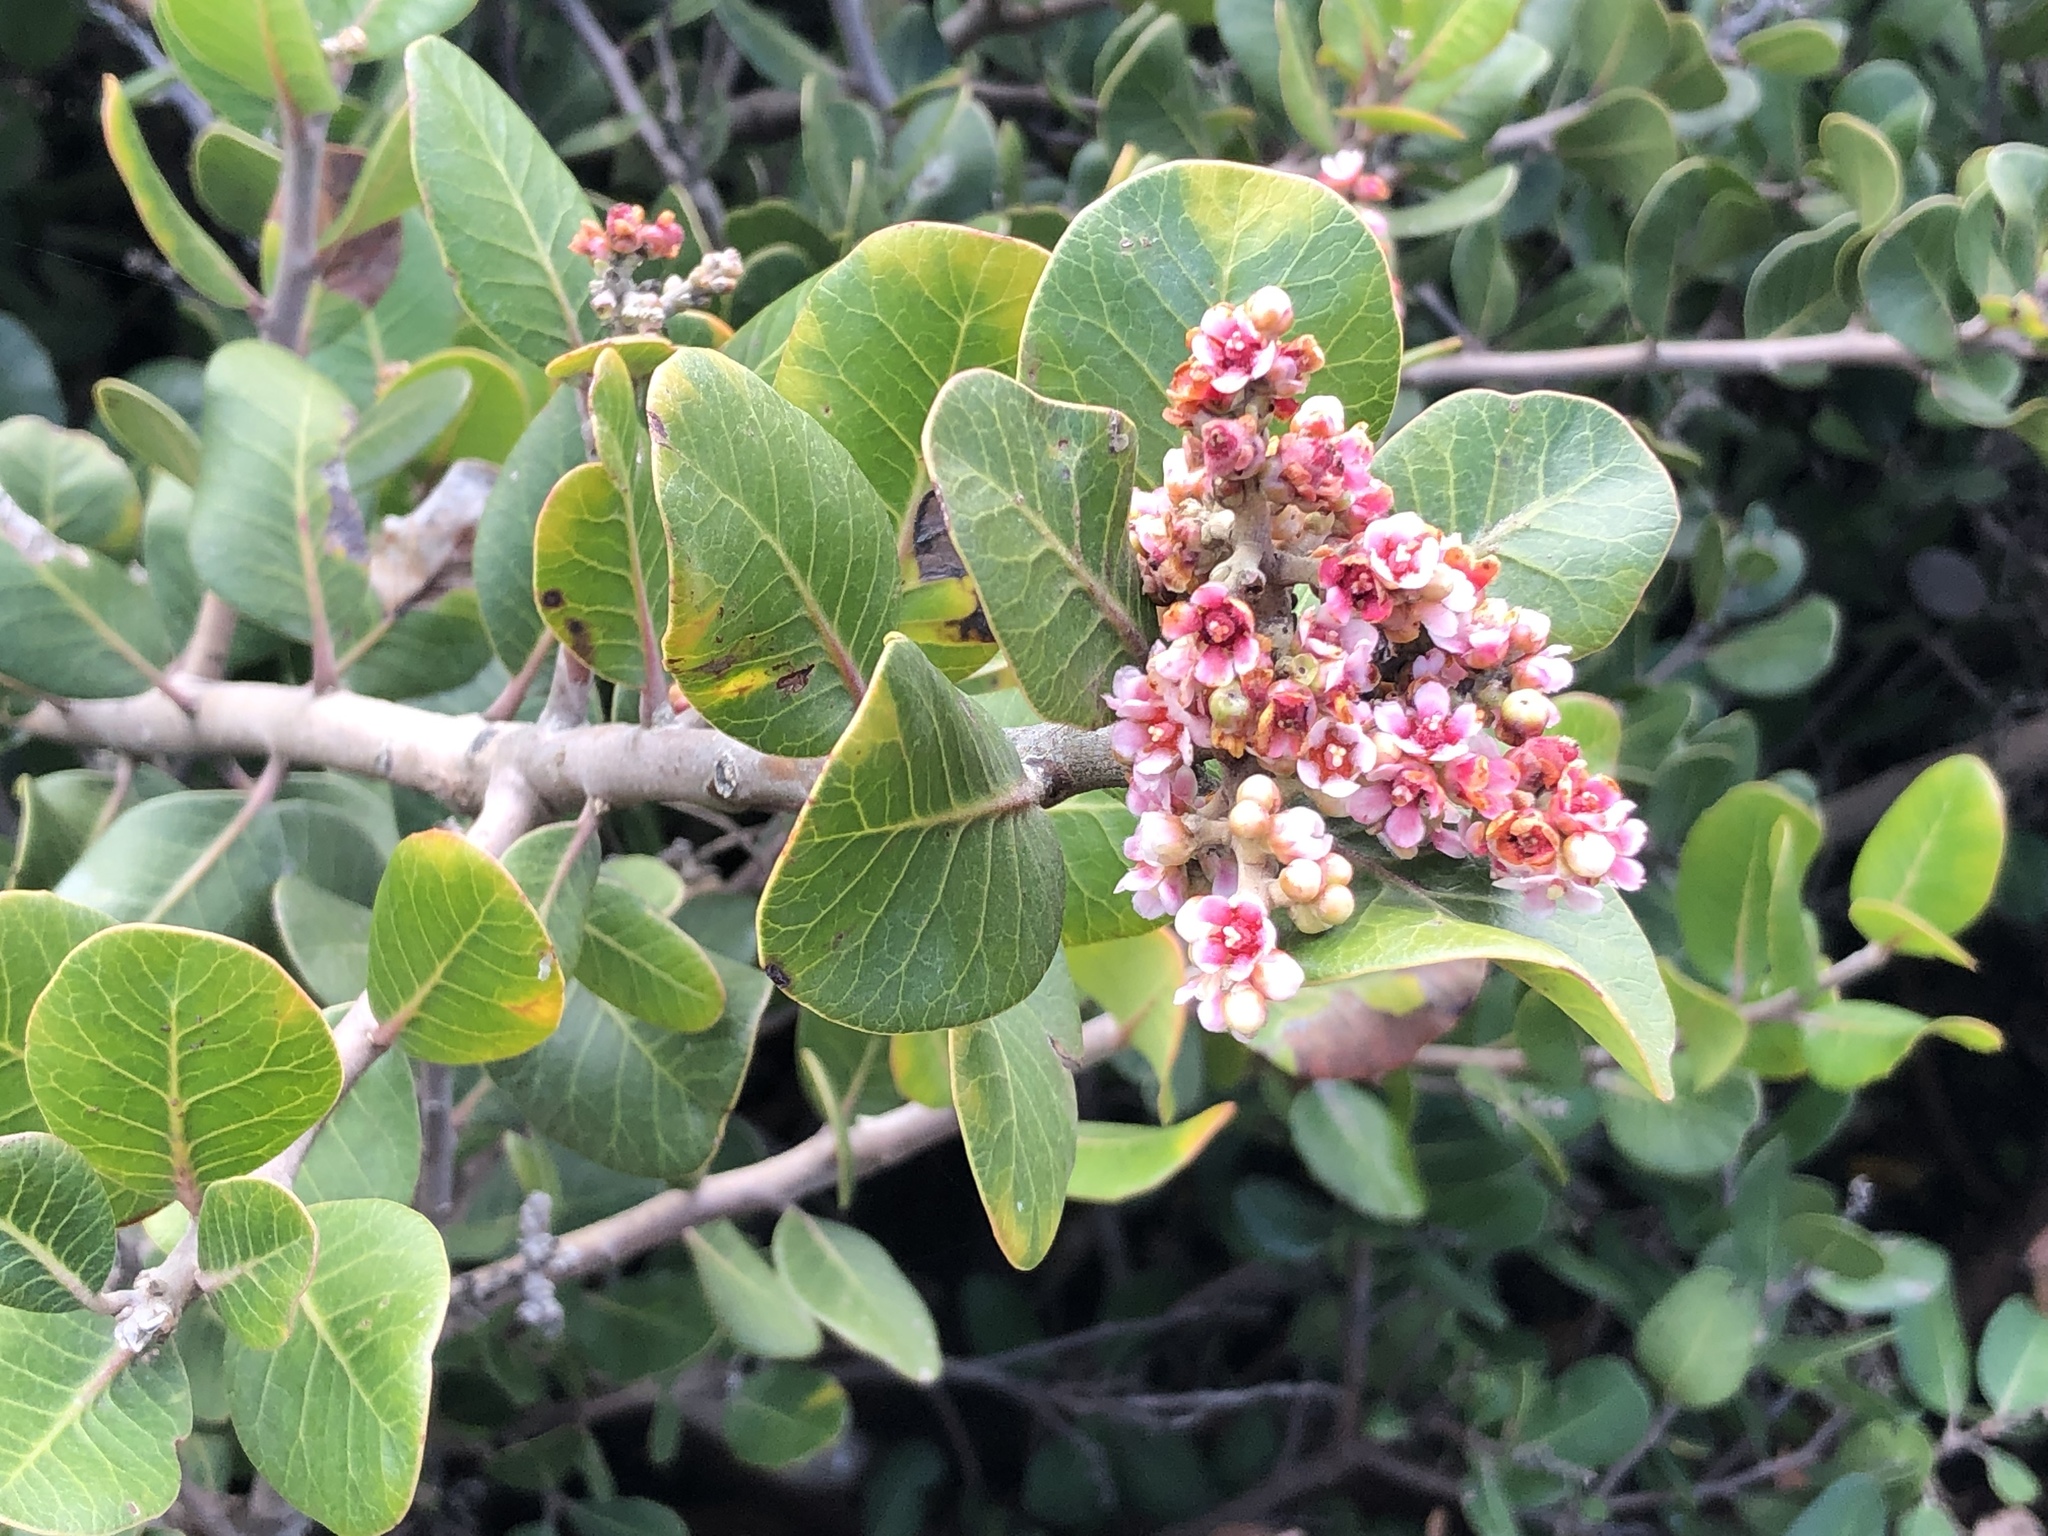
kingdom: Plantae
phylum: Tracheophyta
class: Magnoliopsida
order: Sapindales
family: Anacardiaceae
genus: Rhus
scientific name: Rhus integrifolia
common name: Lemonade sumac
